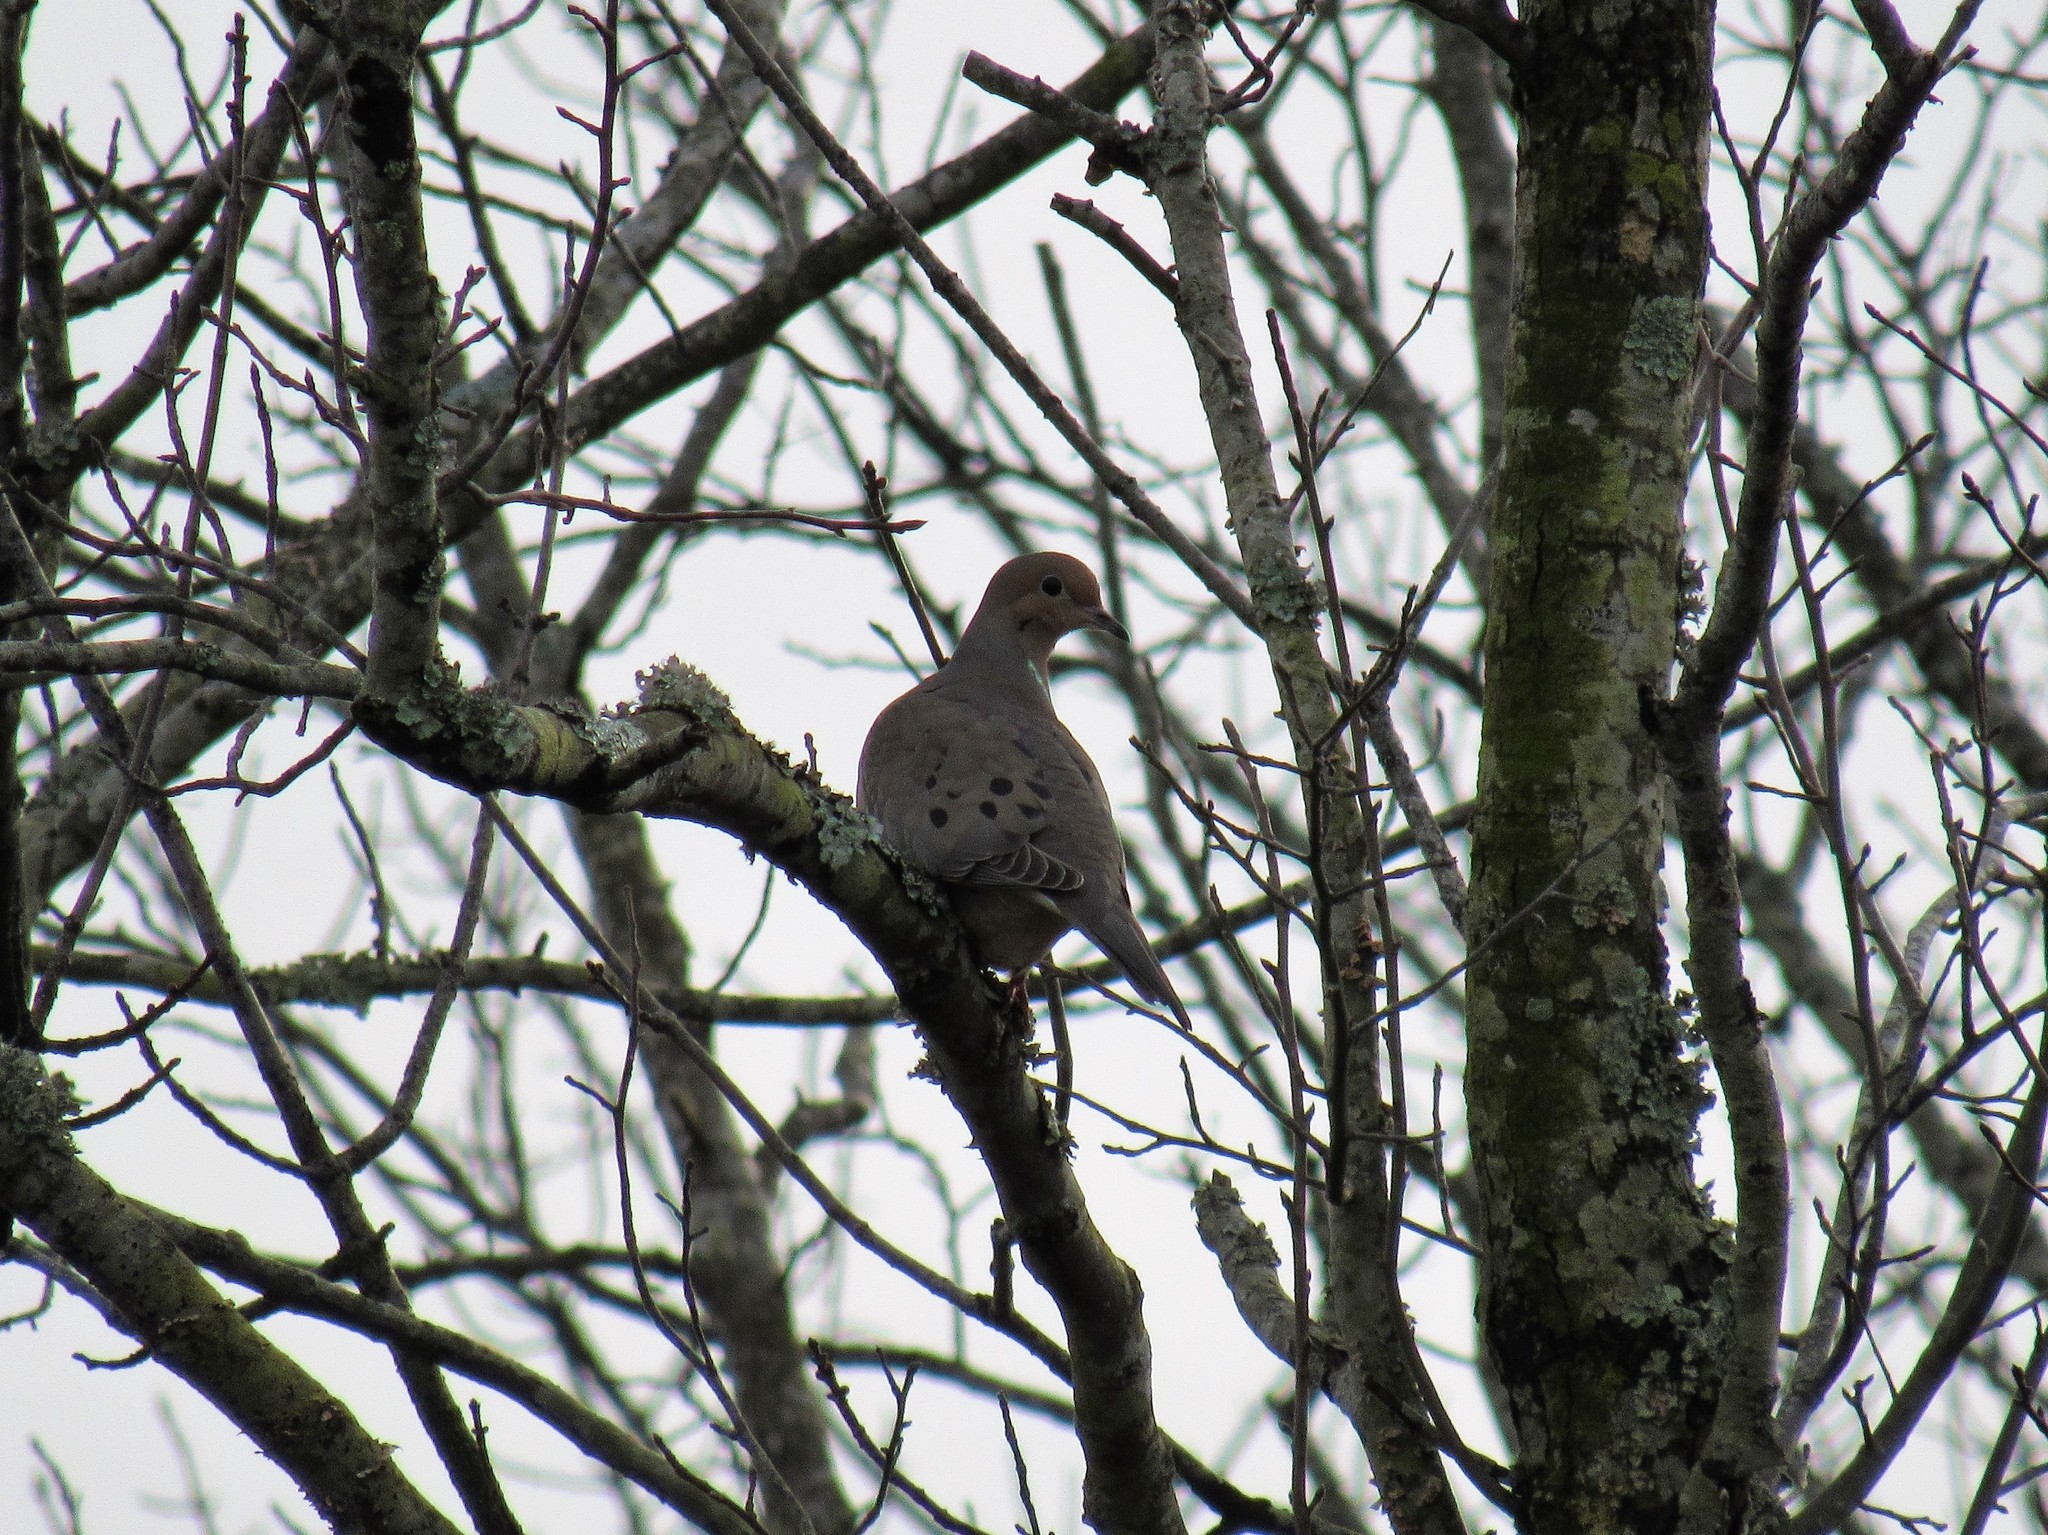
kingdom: Animalia
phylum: Chordata
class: Aves
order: Columbiformes
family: Columbidae
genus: Zenaida
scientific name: Zenaida macroura
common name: Mourning dove
